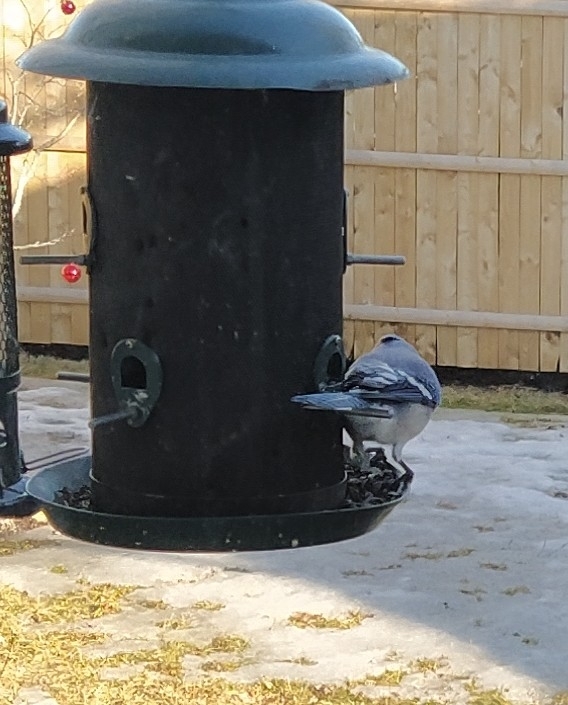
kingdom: Animalia
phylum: Chordata
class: Aves
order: Passeriformes
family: Corvidae
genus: Cyanocitta
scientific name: Cyanocitta cristata
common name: Blue jay
